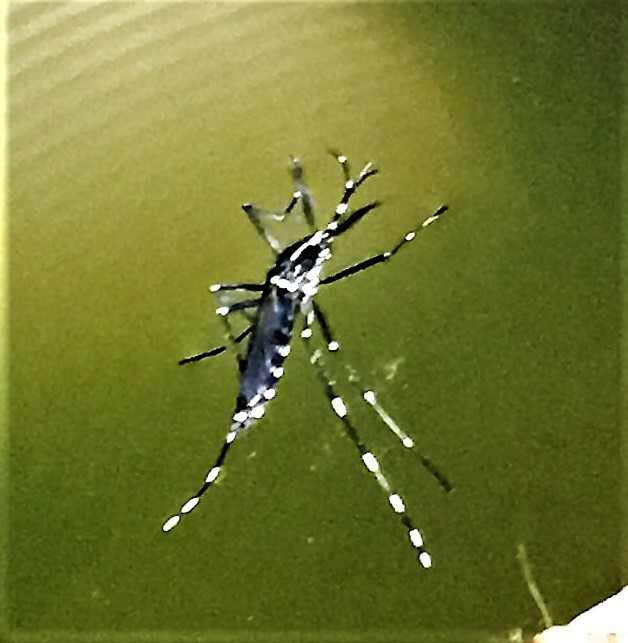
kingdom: Animalia
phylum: Arthropoda
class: Insecta
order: Diptera
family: Culicidae
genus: Aedes
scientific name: Aedes albopictus
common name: Tiger mosquito
